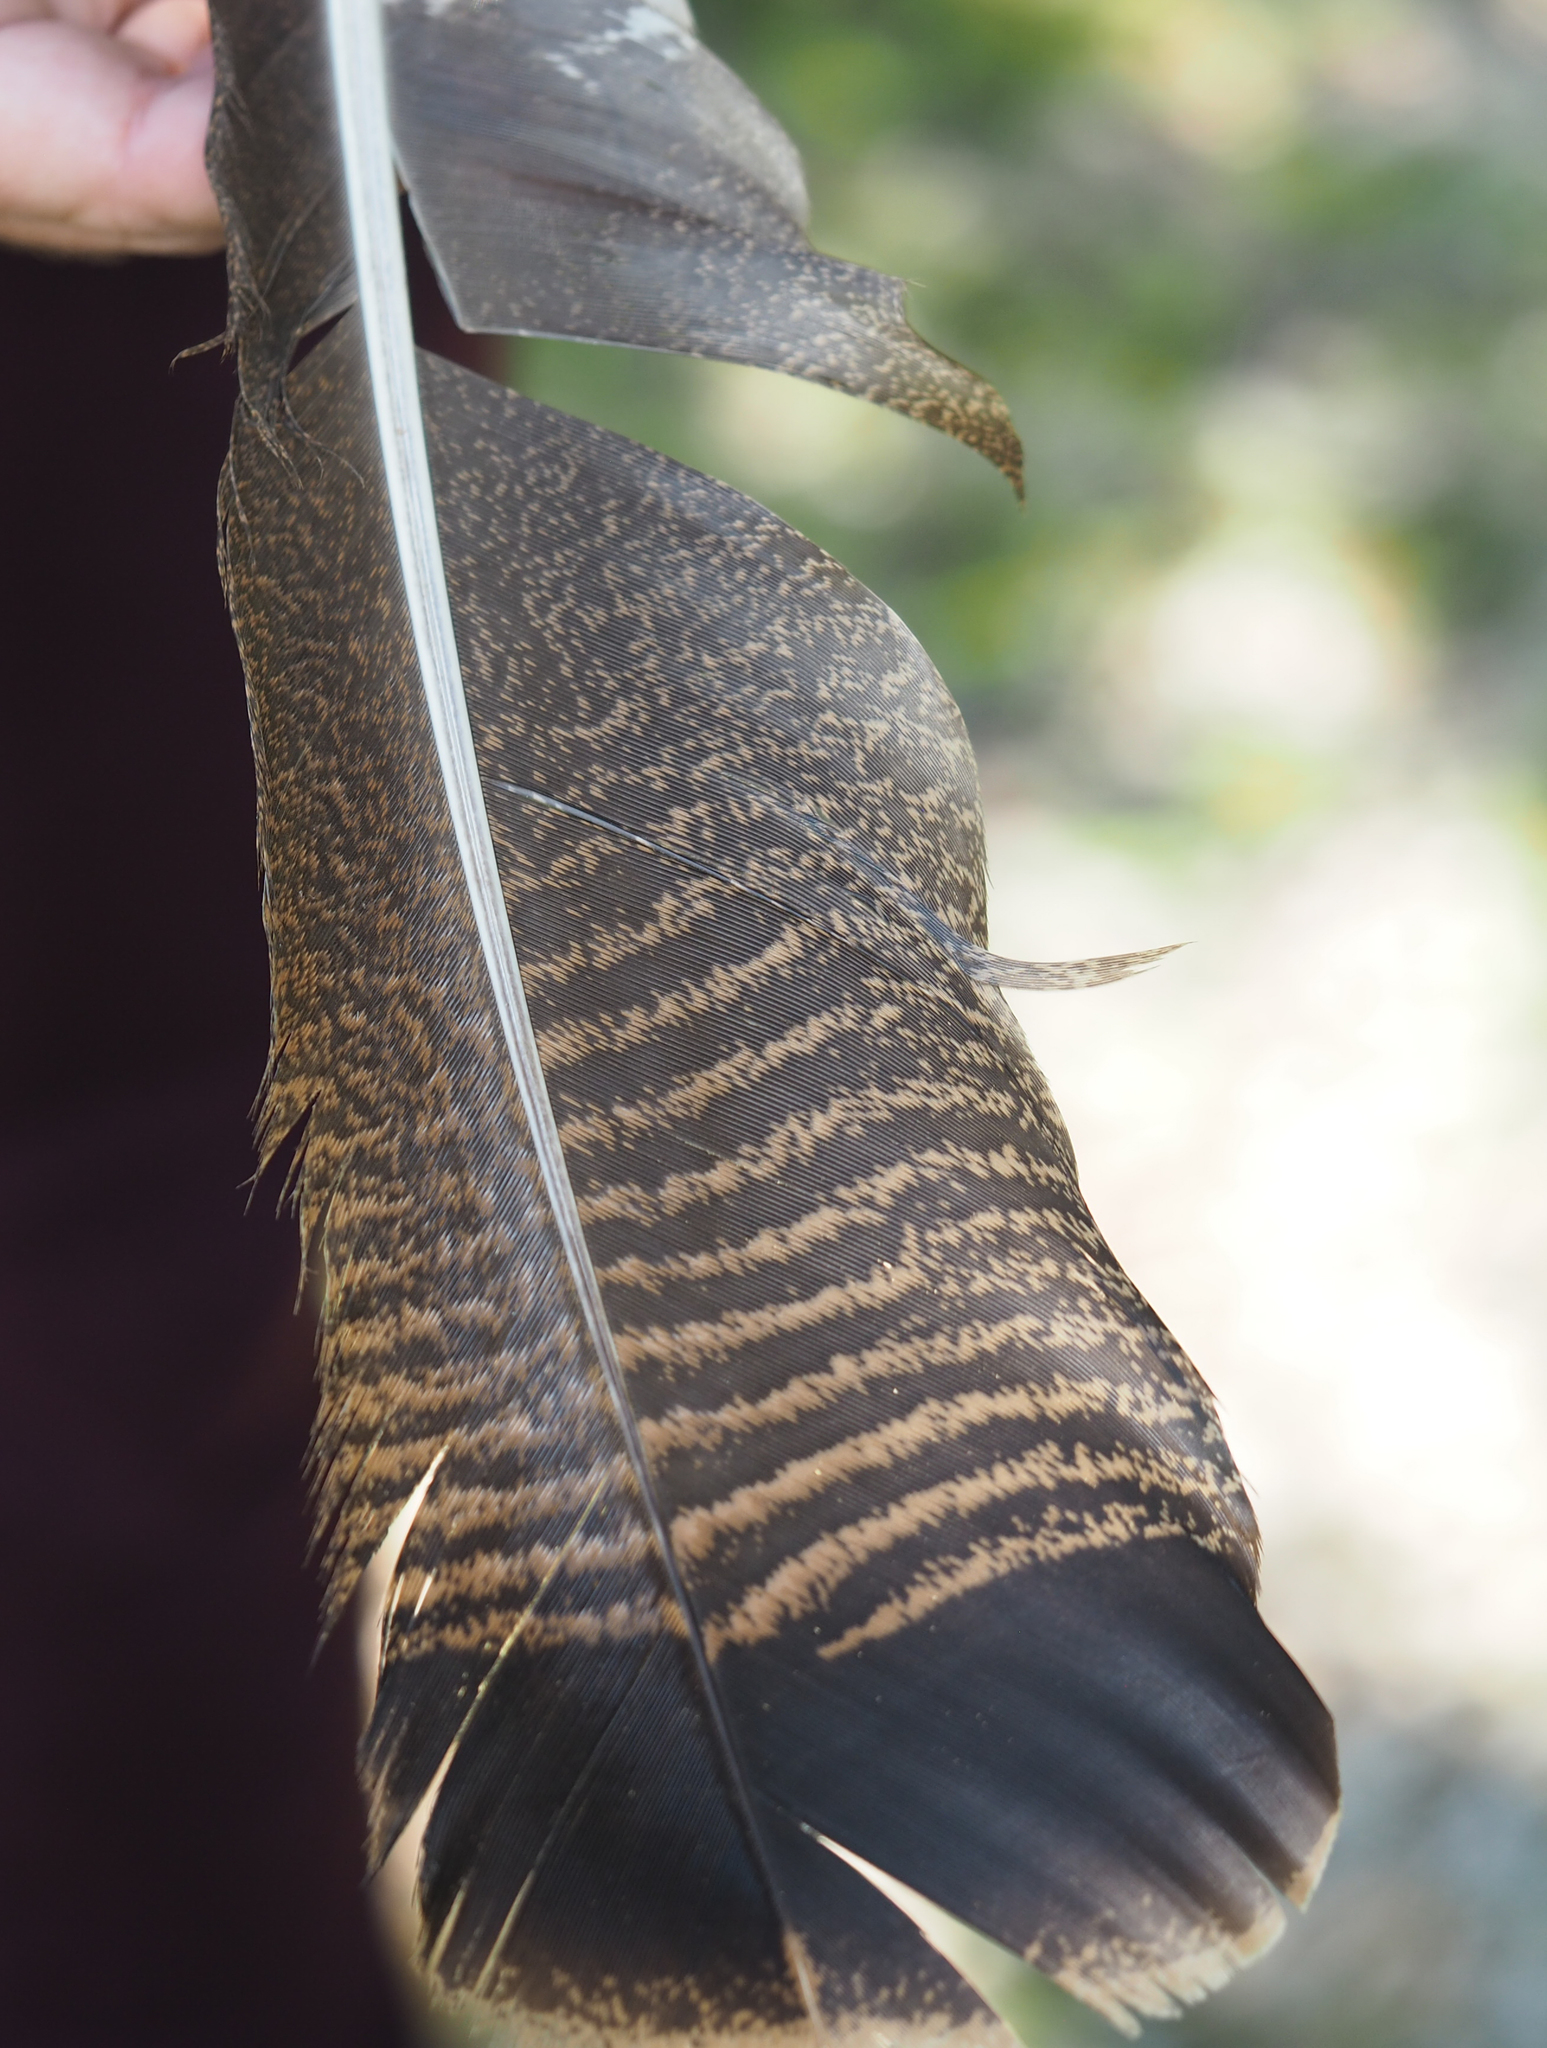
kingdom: Animalia
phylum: Chordata
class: Aves
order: Galliformes
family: Phasianidae
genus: Meleagris
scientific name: Meleagris gallopavo
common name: Wild turkey
